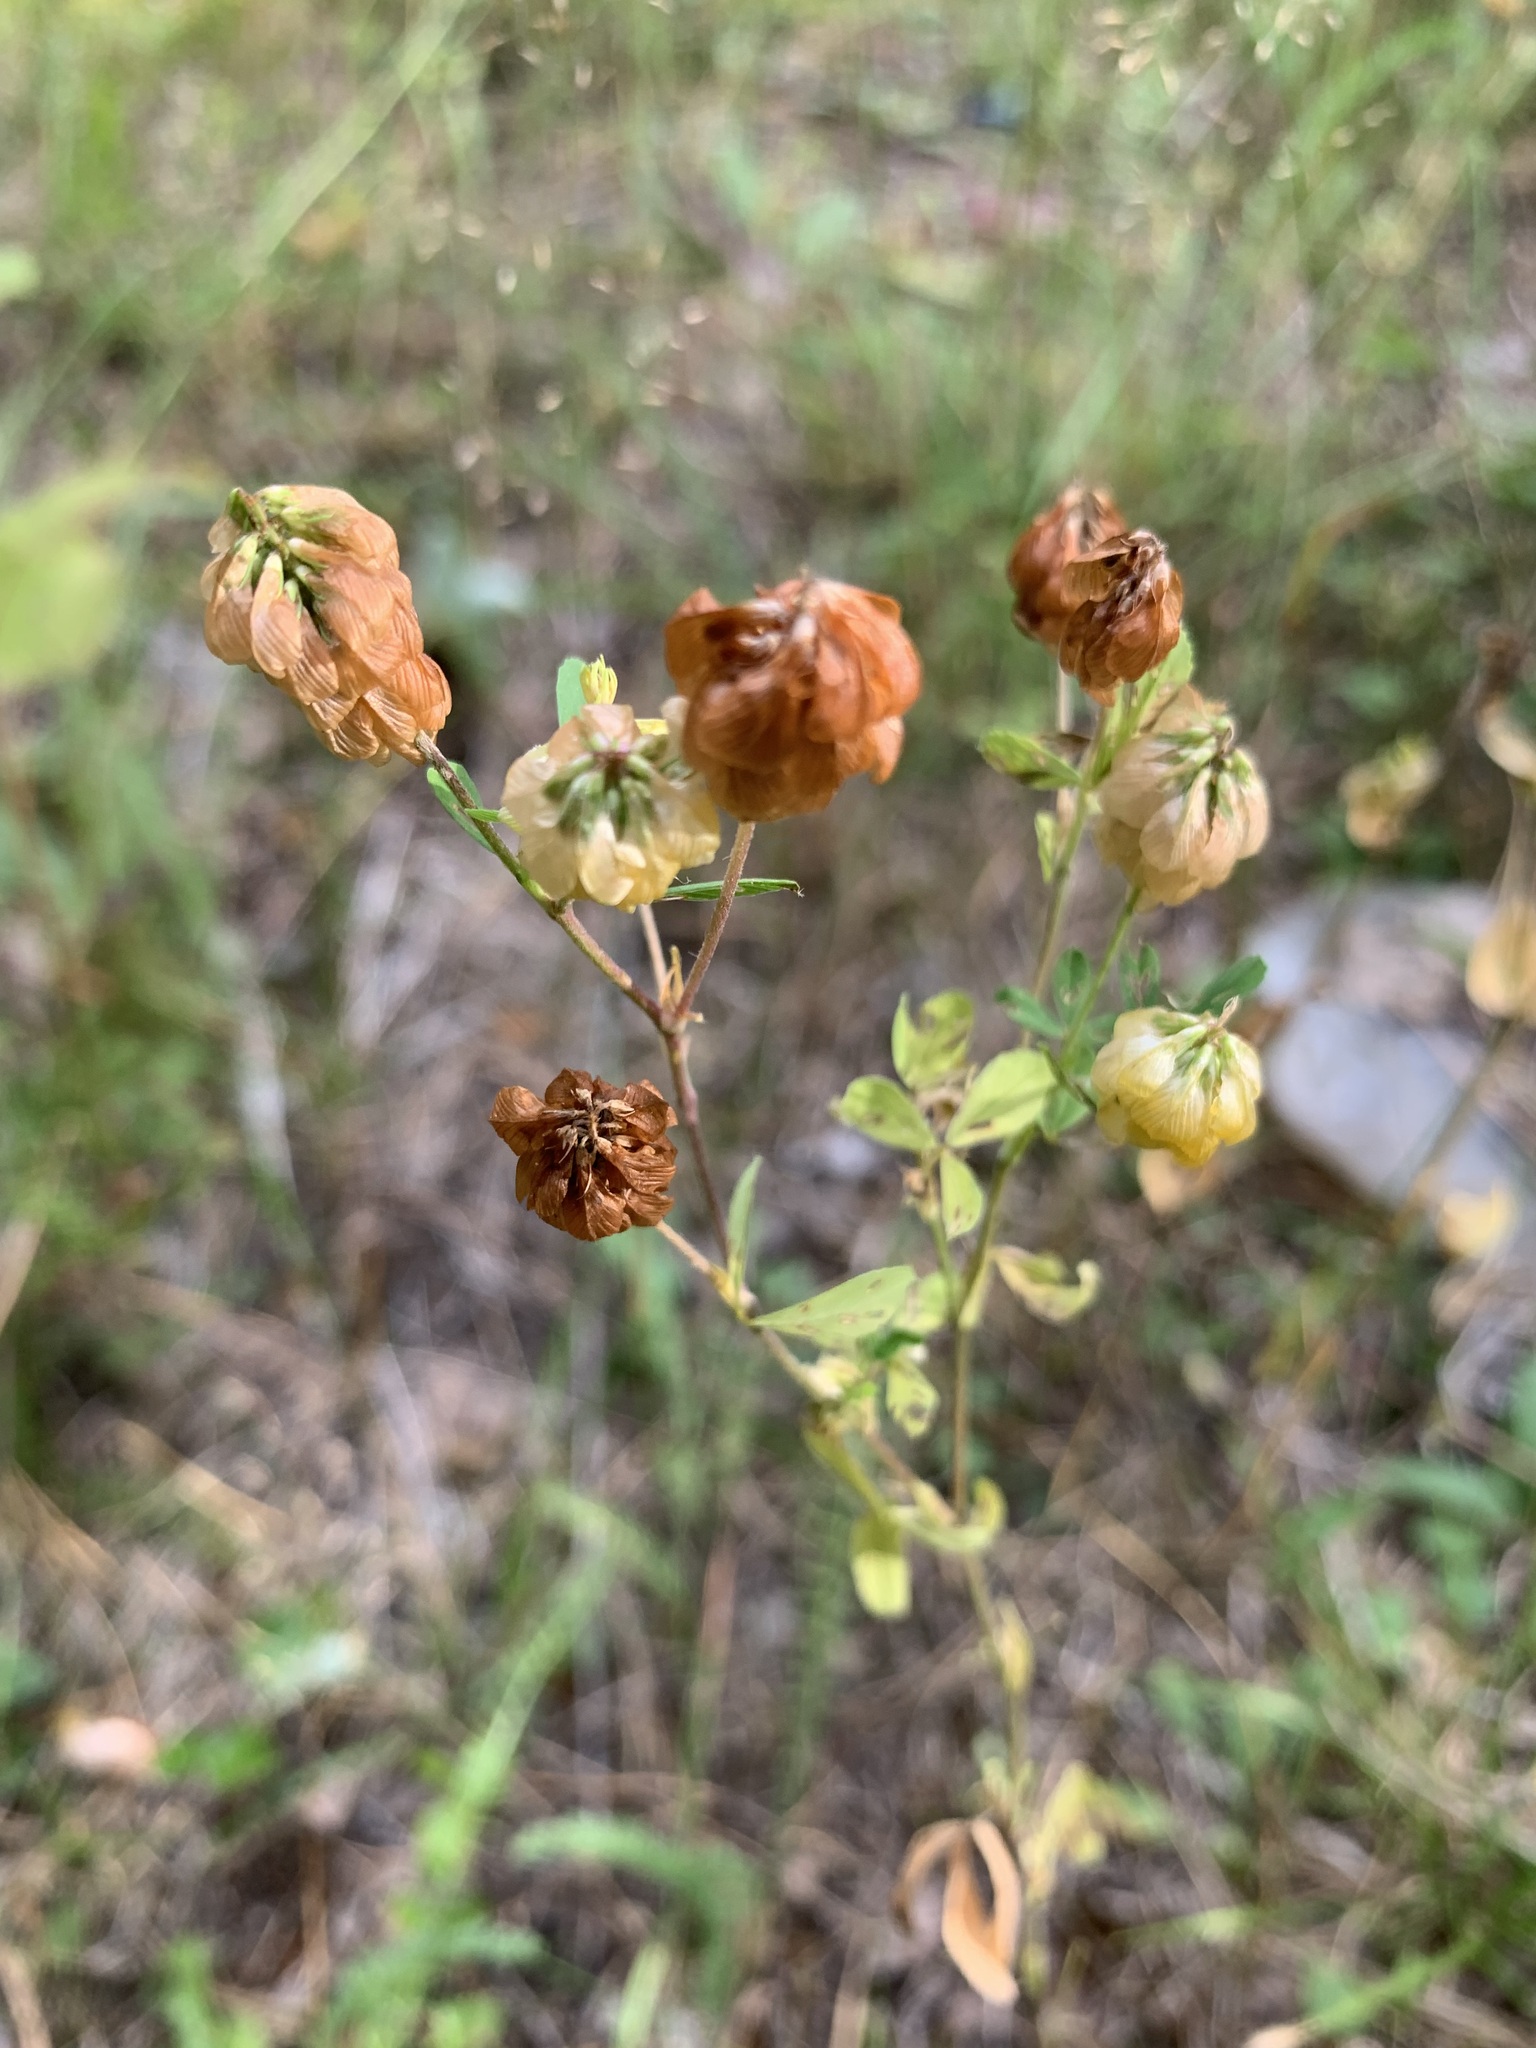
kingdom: Plantae
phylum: Tracheophyta
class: Magnoliopsida
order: Fabales
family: Fabaceae
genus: Trifolium
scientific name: Trifolium aureum
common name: Golden clover
